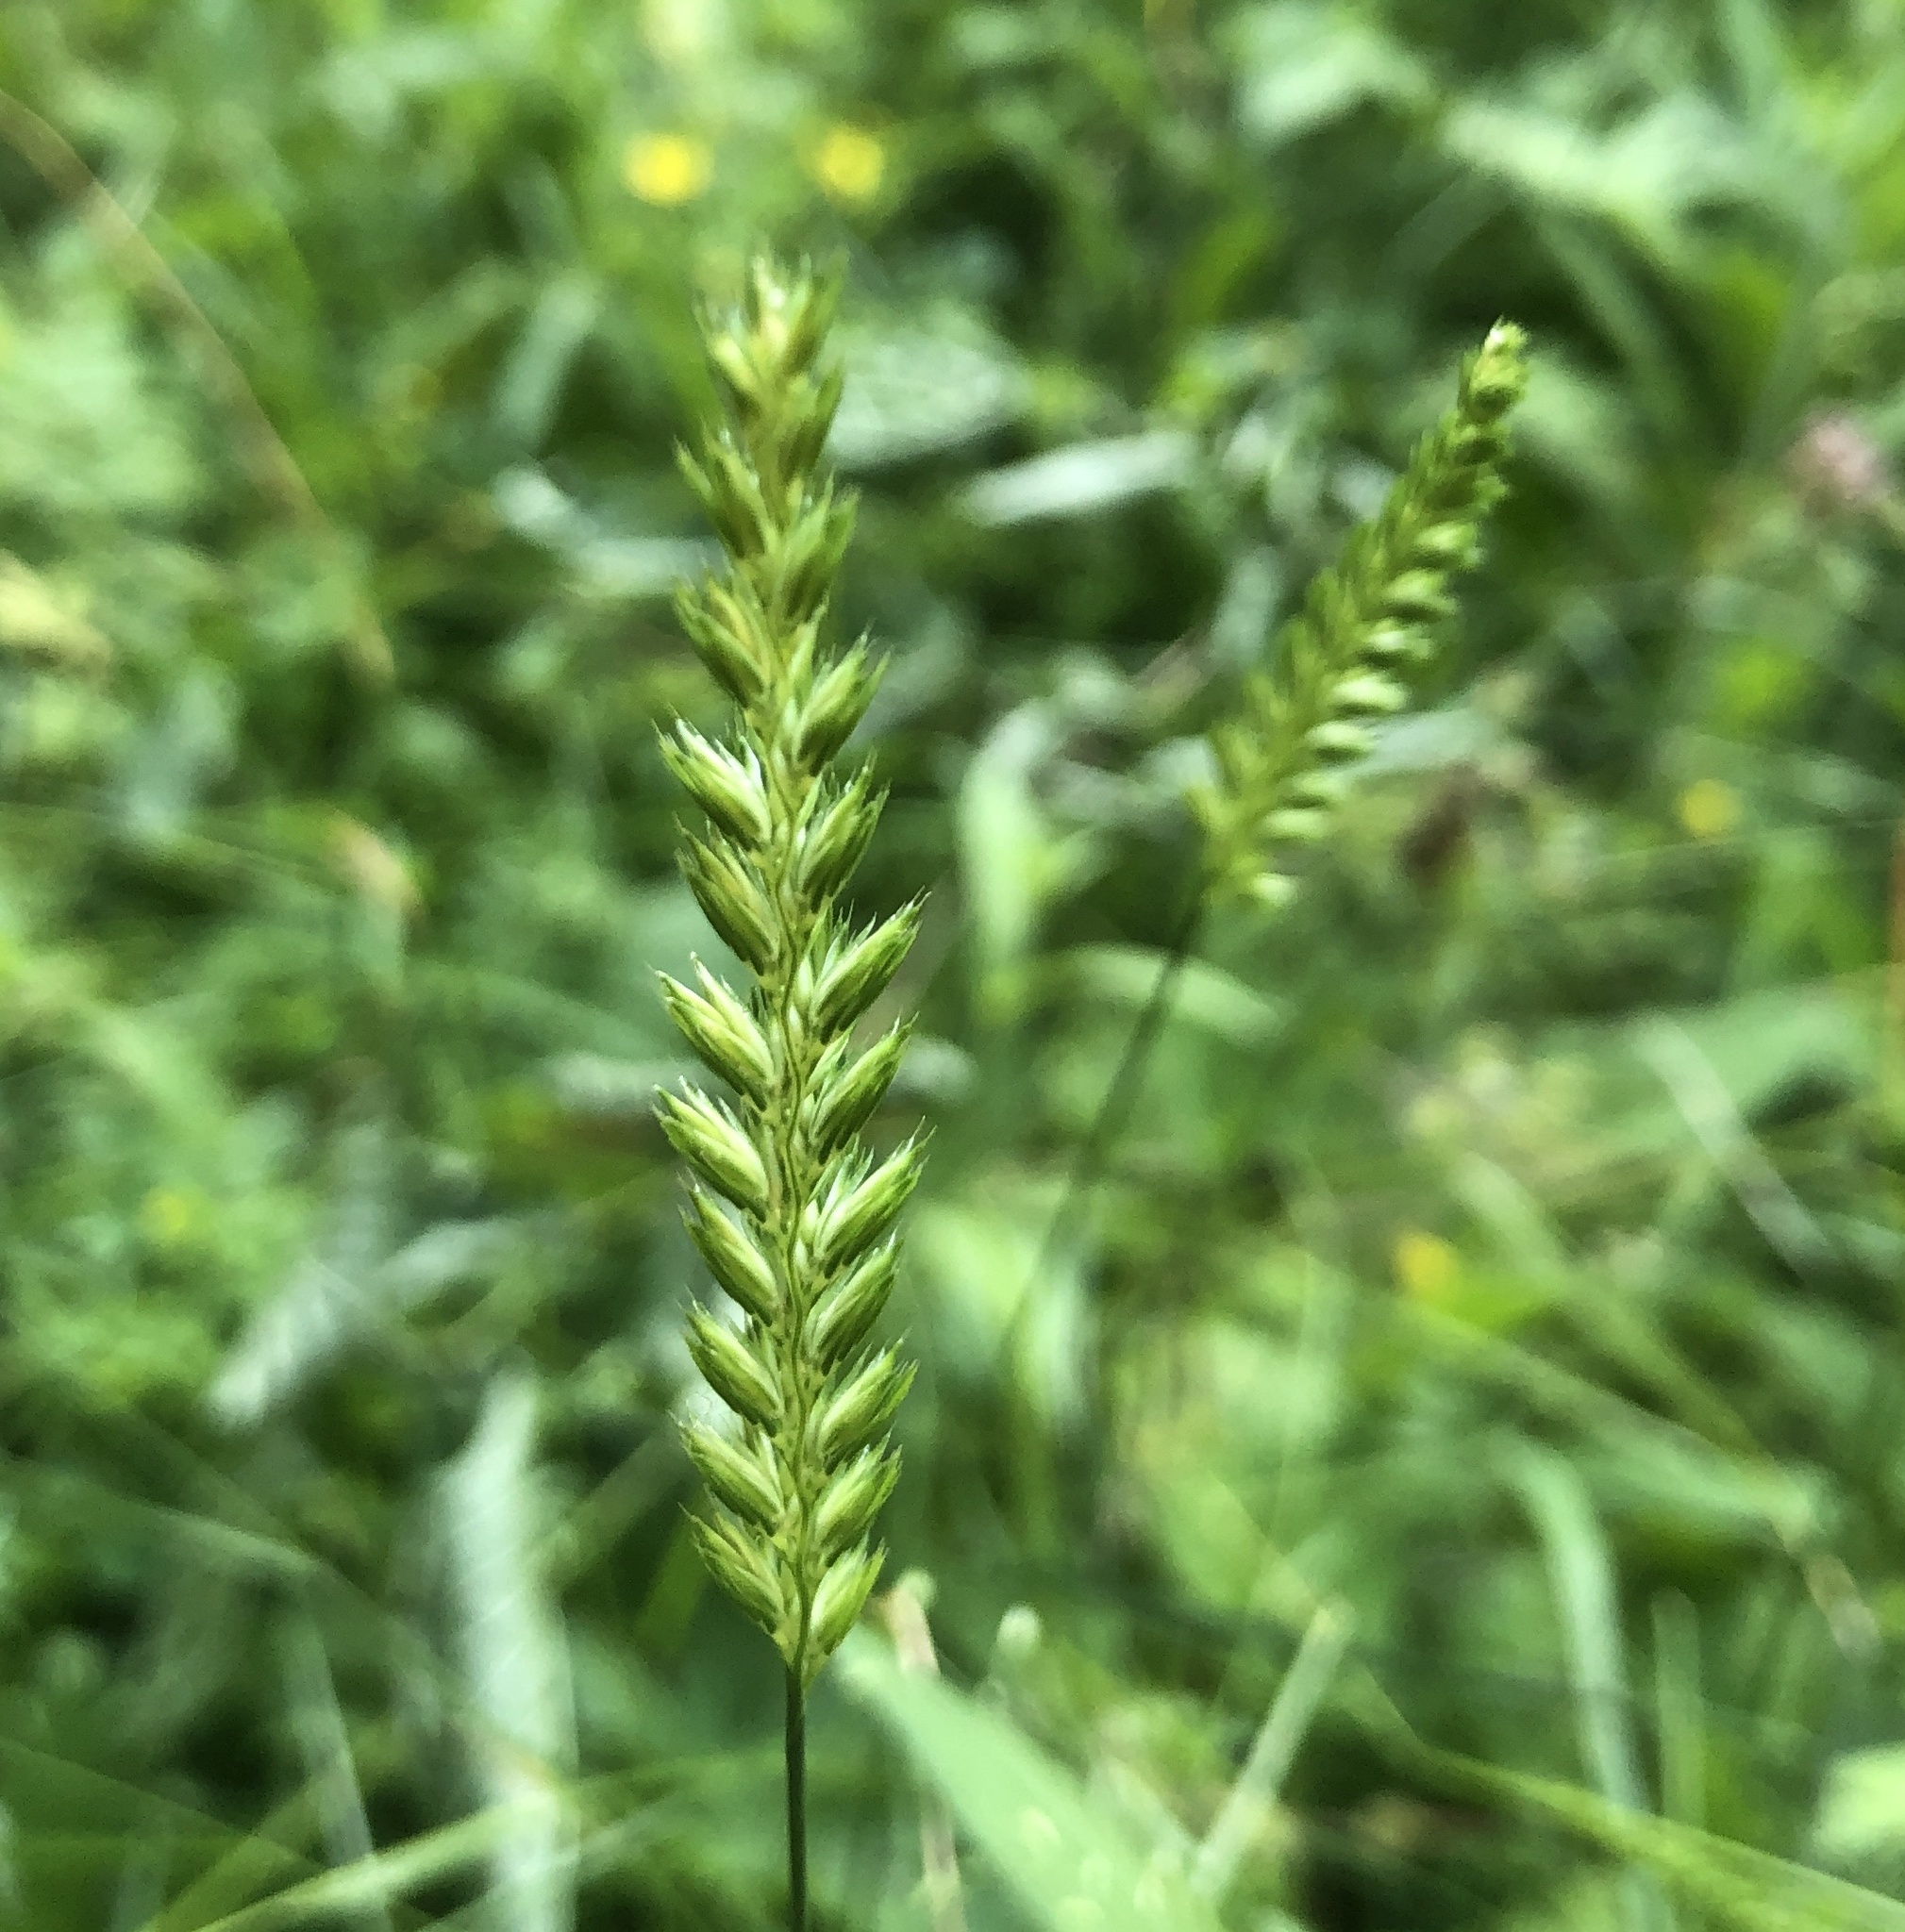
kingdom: Plantae
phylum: Tracheophyta
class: Liliopsida
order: Poales
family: Poaceae
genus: Cynosurus
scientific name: Cynosurus cristatus
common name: Crested dog's-tail
